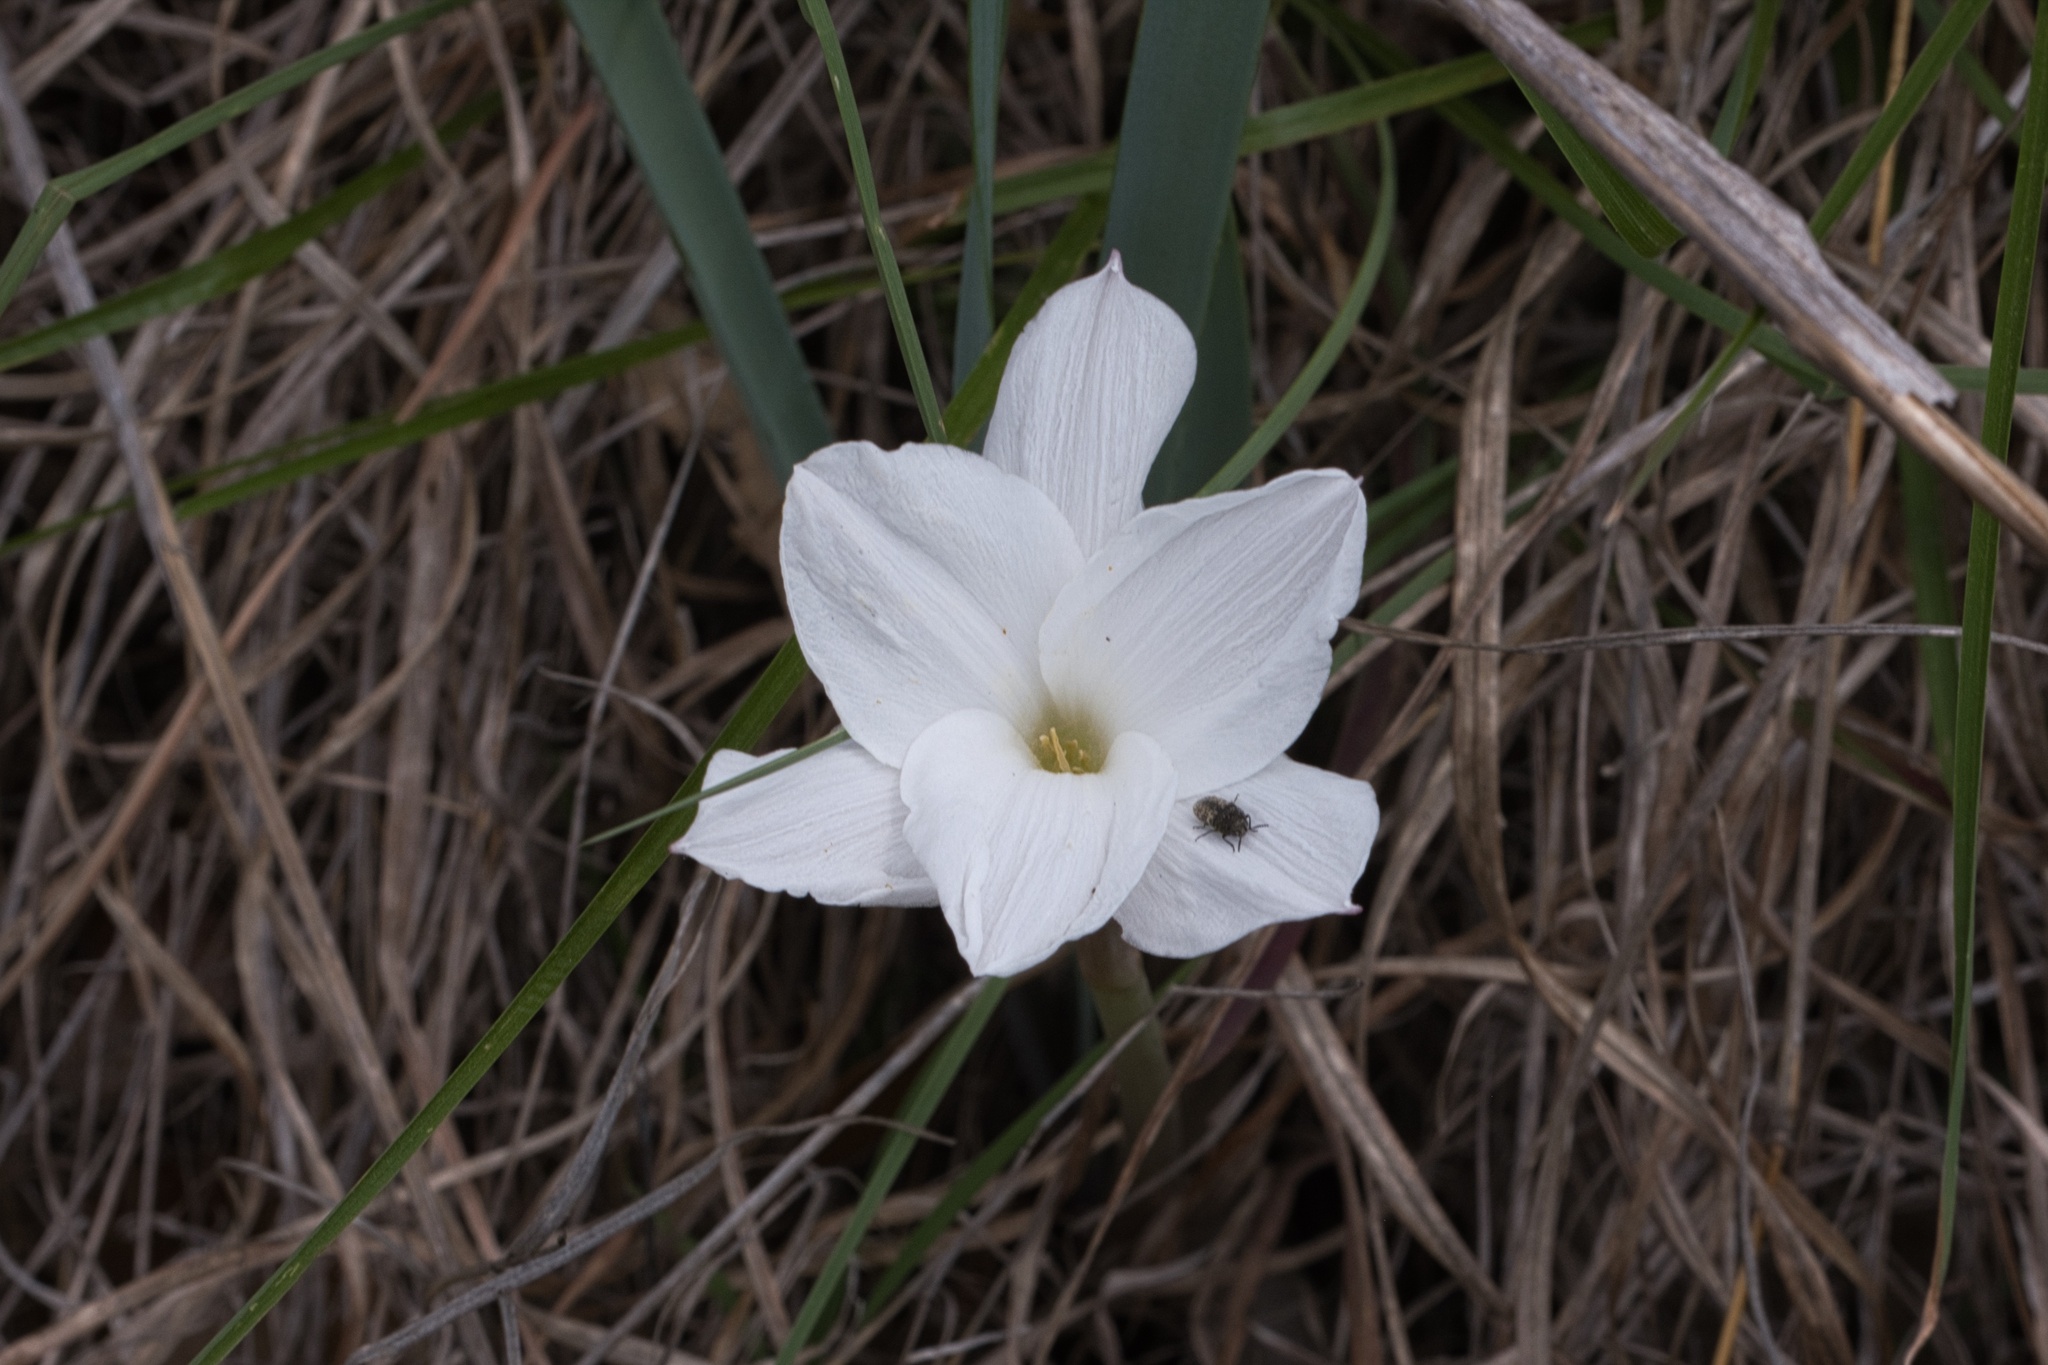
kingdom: Plantae
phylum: Tracheophyta
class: Liliopsida
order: Asparagales
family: Amaryllidaceae
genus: Zephyranthes
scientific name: Zephyranthes drummondii
